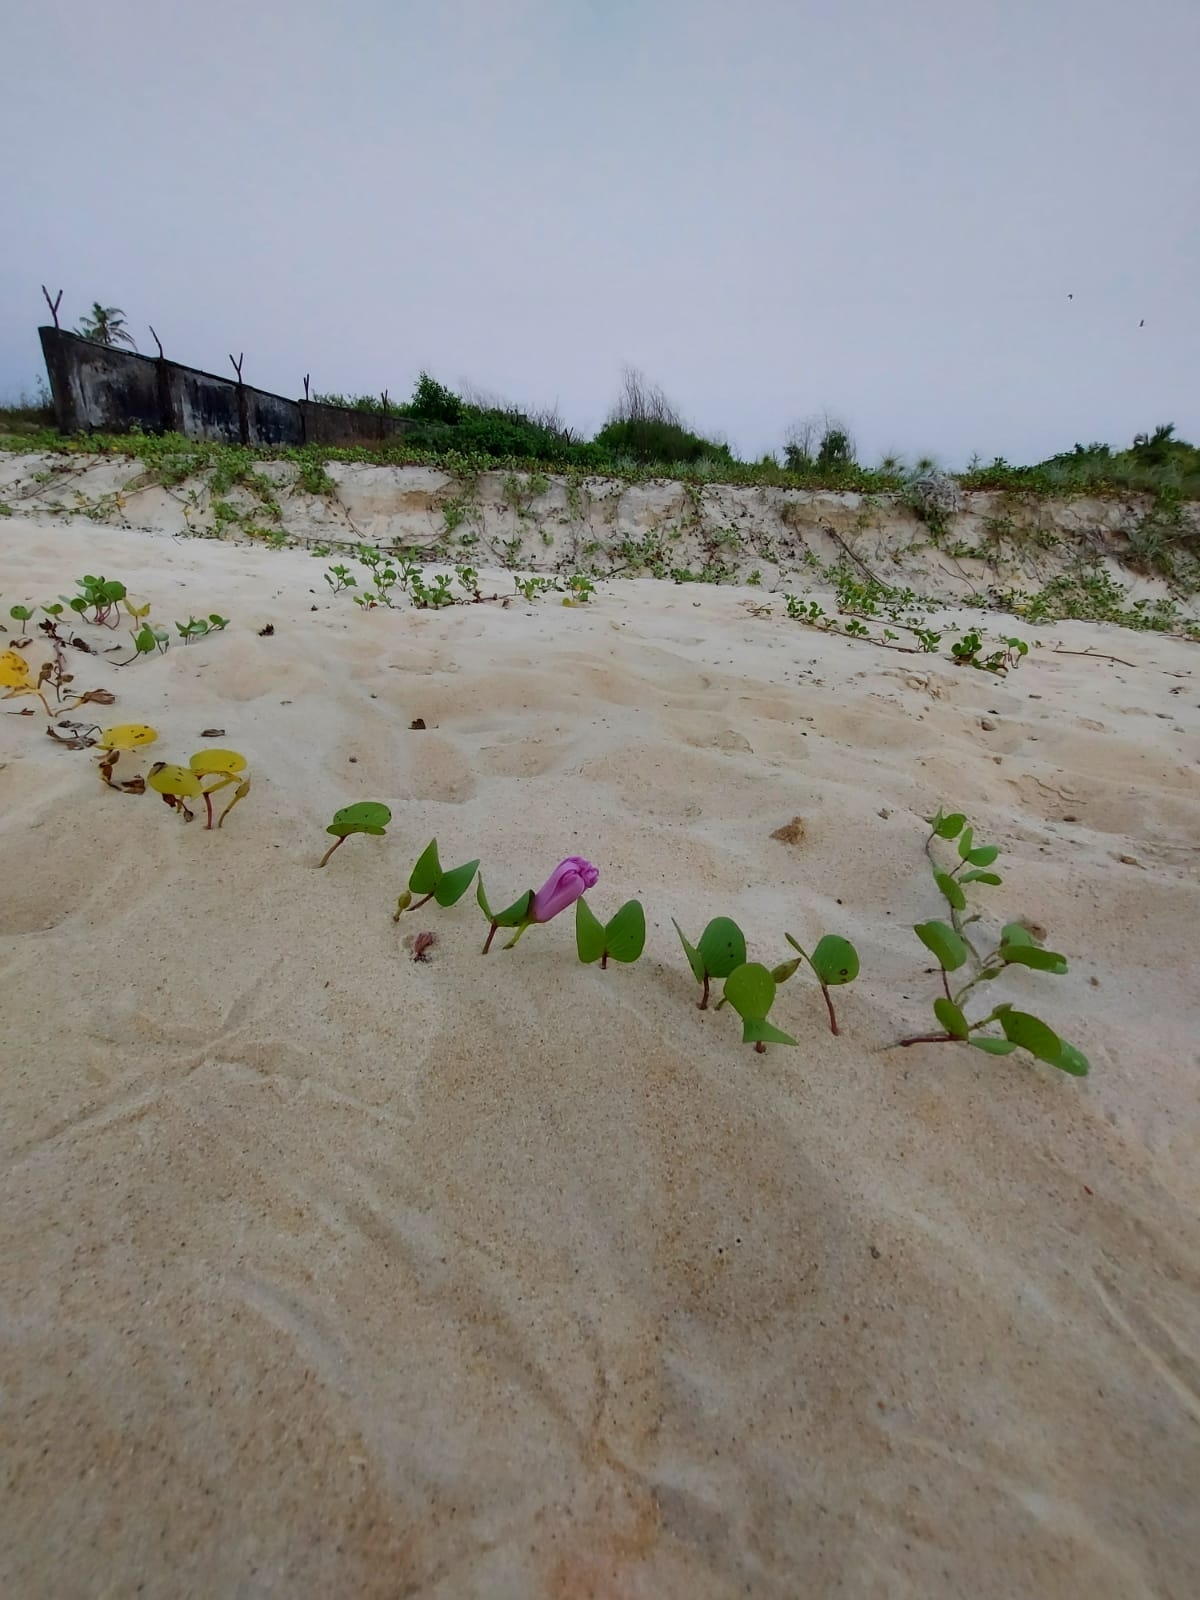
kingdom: Plantae
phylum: Tracheophyta
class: Magnoliopsida
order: Solanales
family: Convolvulaceae
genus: Ipomoea
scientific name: Ipomoea pes-caprae
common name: Beach morning glory
